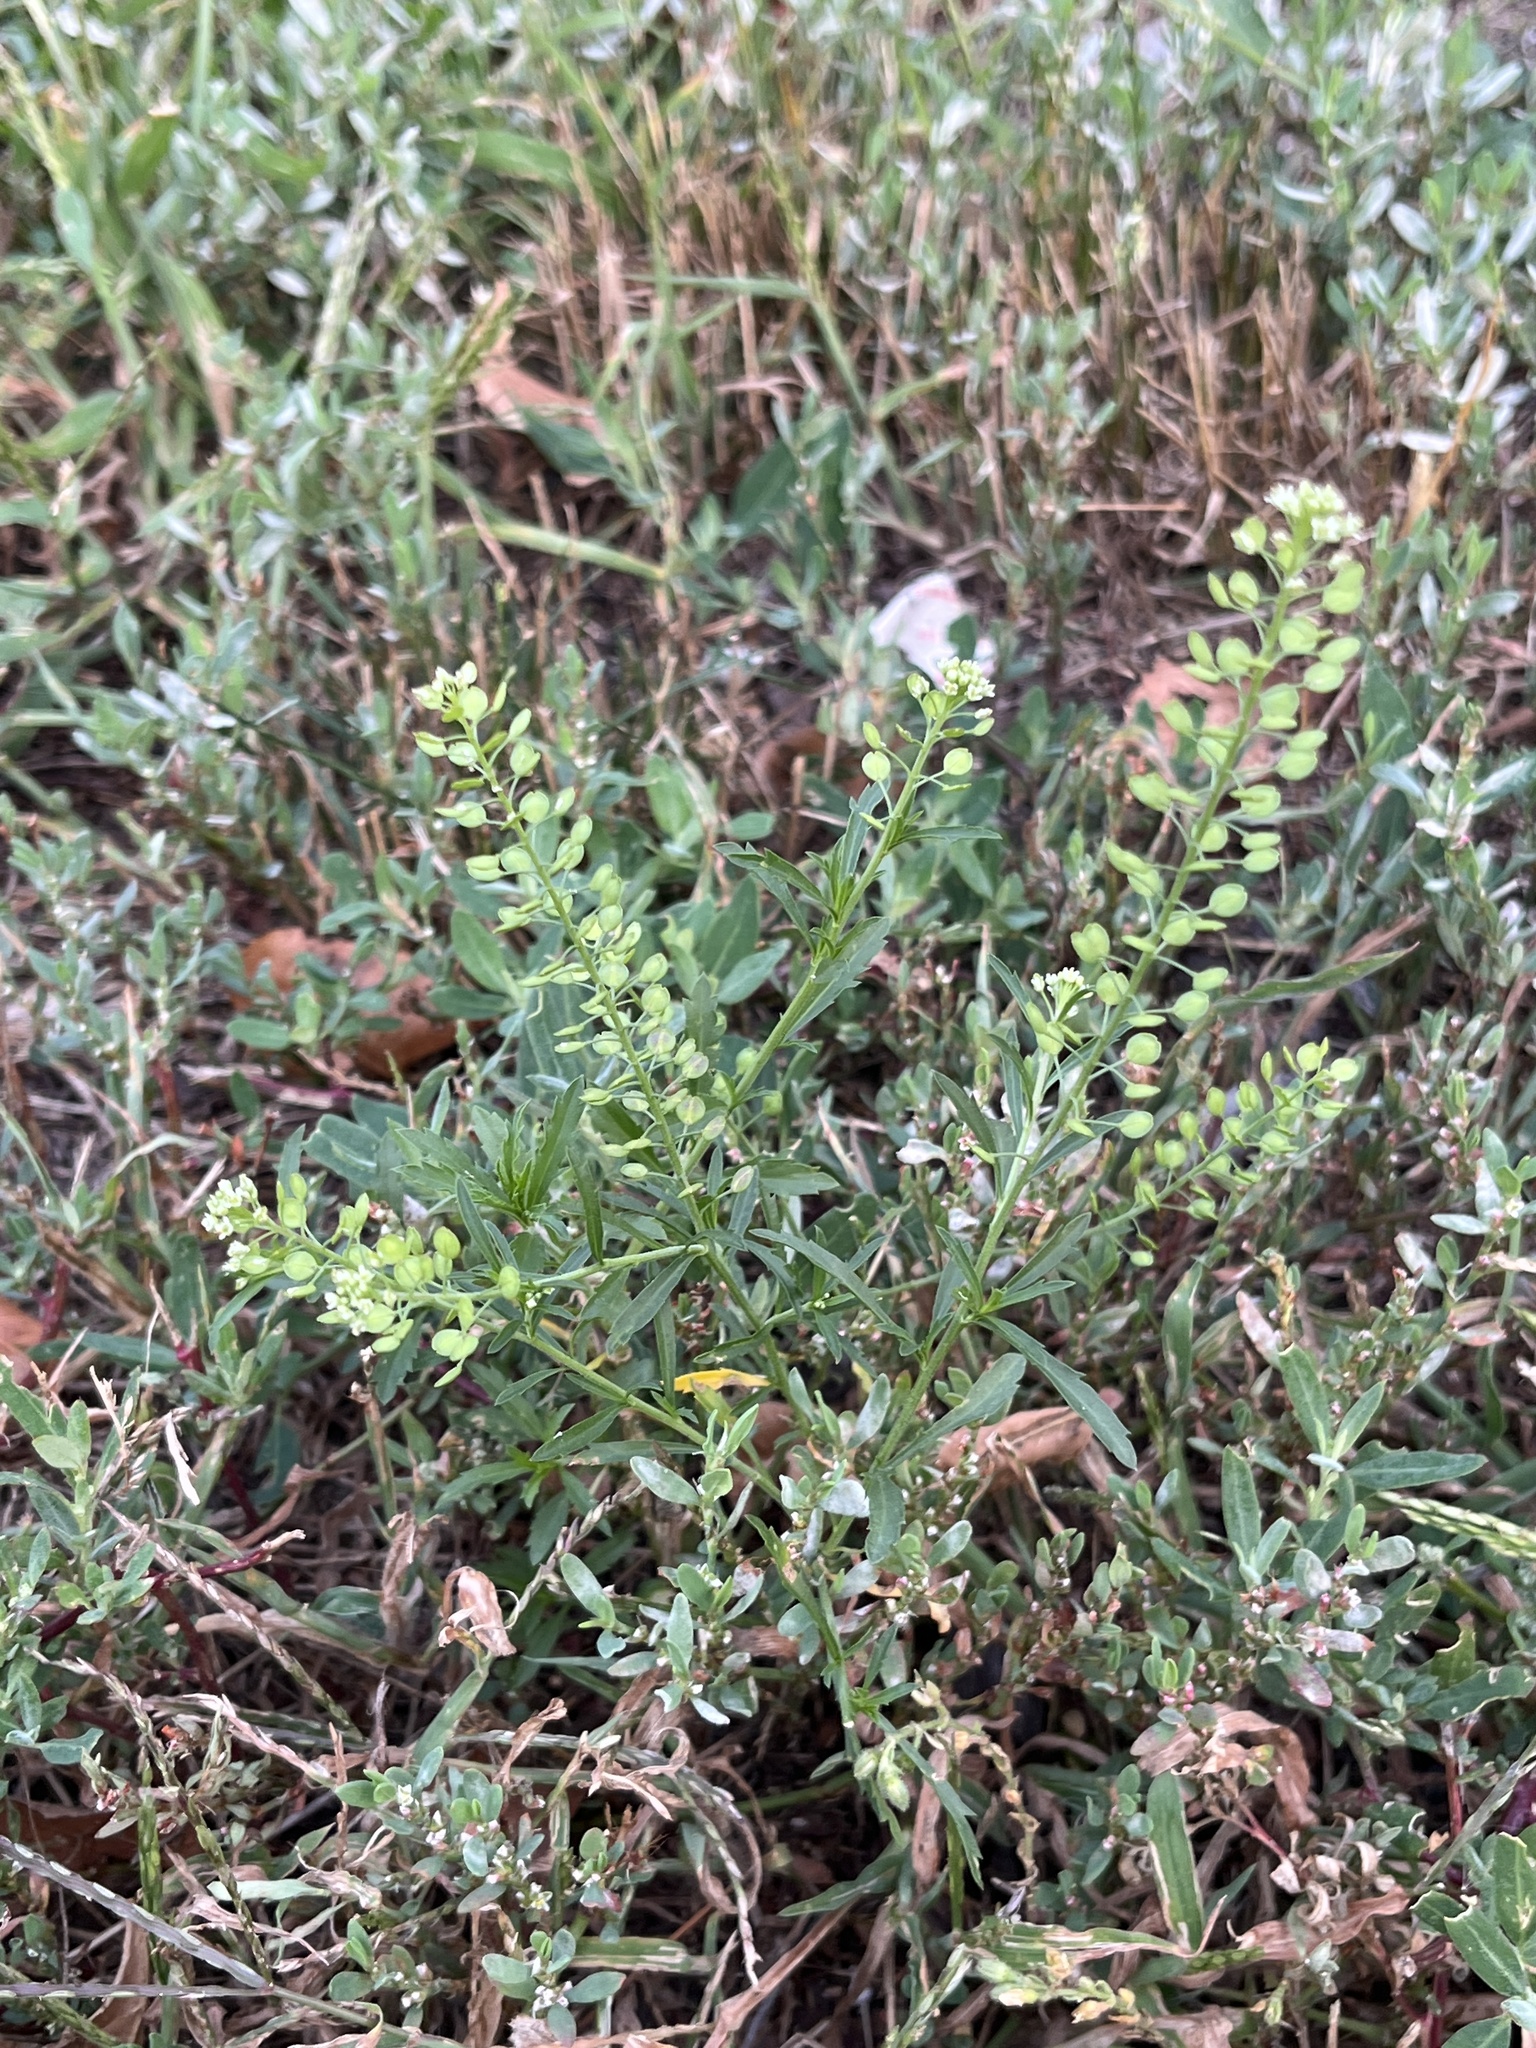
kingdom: Plantae
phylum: Tracheophyta
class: Magnoliopsida
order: Brassicales
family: Brassicaceae
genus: Lepidium
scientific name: Lepidium virginicum
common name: Least pepperwort
